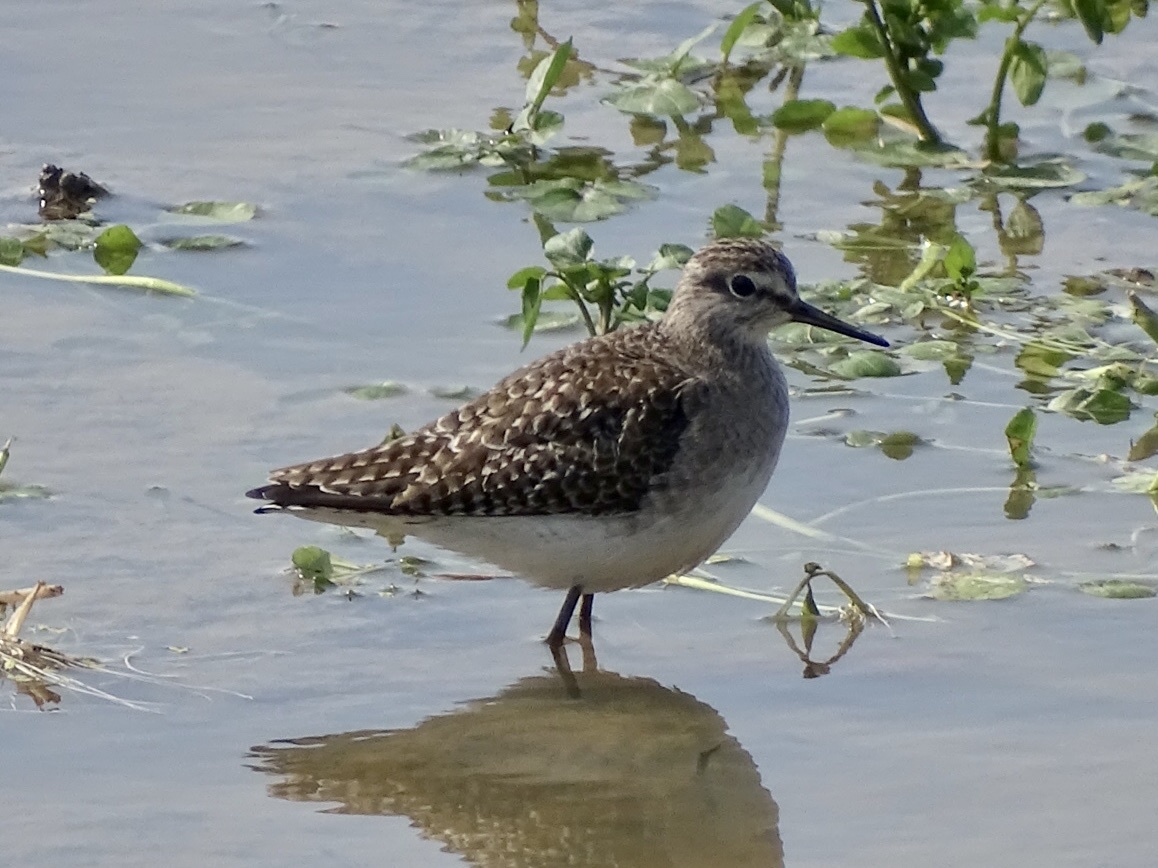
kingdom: Animalia
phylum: Chordata
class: Aves
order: Charadriiformes
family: Scolopacidae
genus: Tringa
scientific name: Tringa glareola
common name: Wood sandpiper
